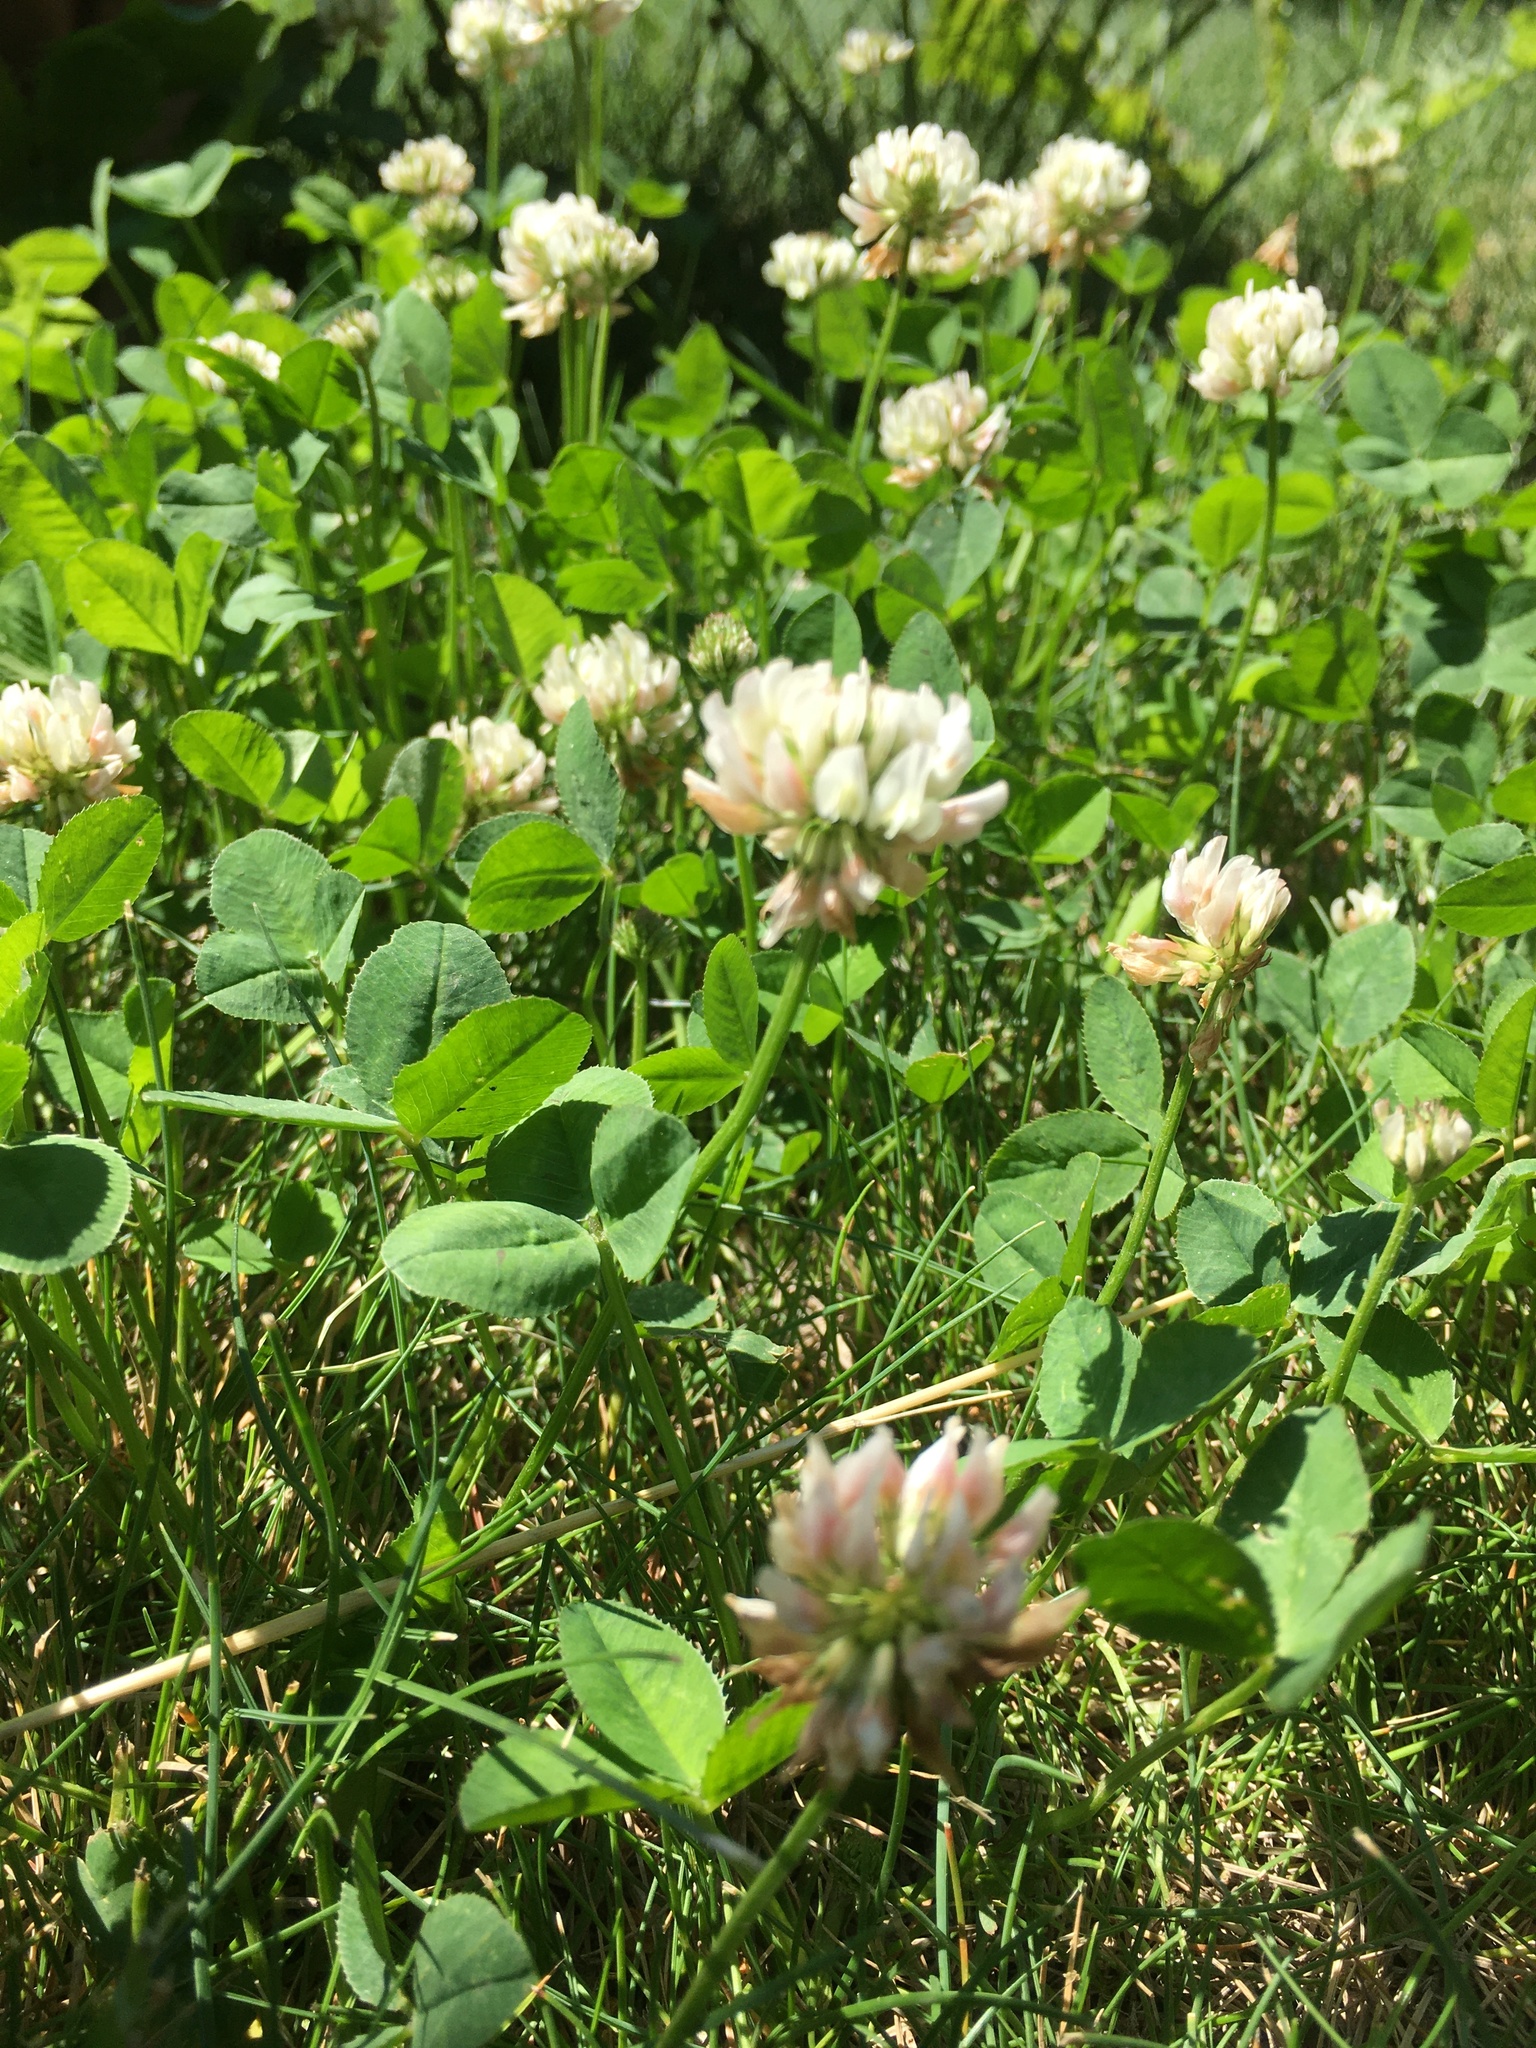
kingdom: Plantae
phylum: Tracheophyta
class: Magnoliopsida
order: Fabales
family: Fabaceae
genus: Trifolium
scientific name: Trifolium repens
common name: White clover
